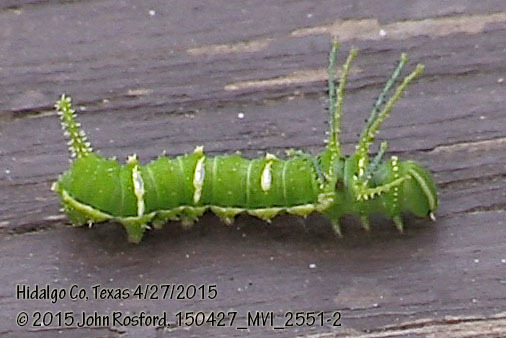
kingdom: Animalia
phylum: Arthropoda
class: Insecta
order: Lepidoptera
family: Saturniidae
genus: Syssphinx
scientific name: Syssphinx heiligbrodti
